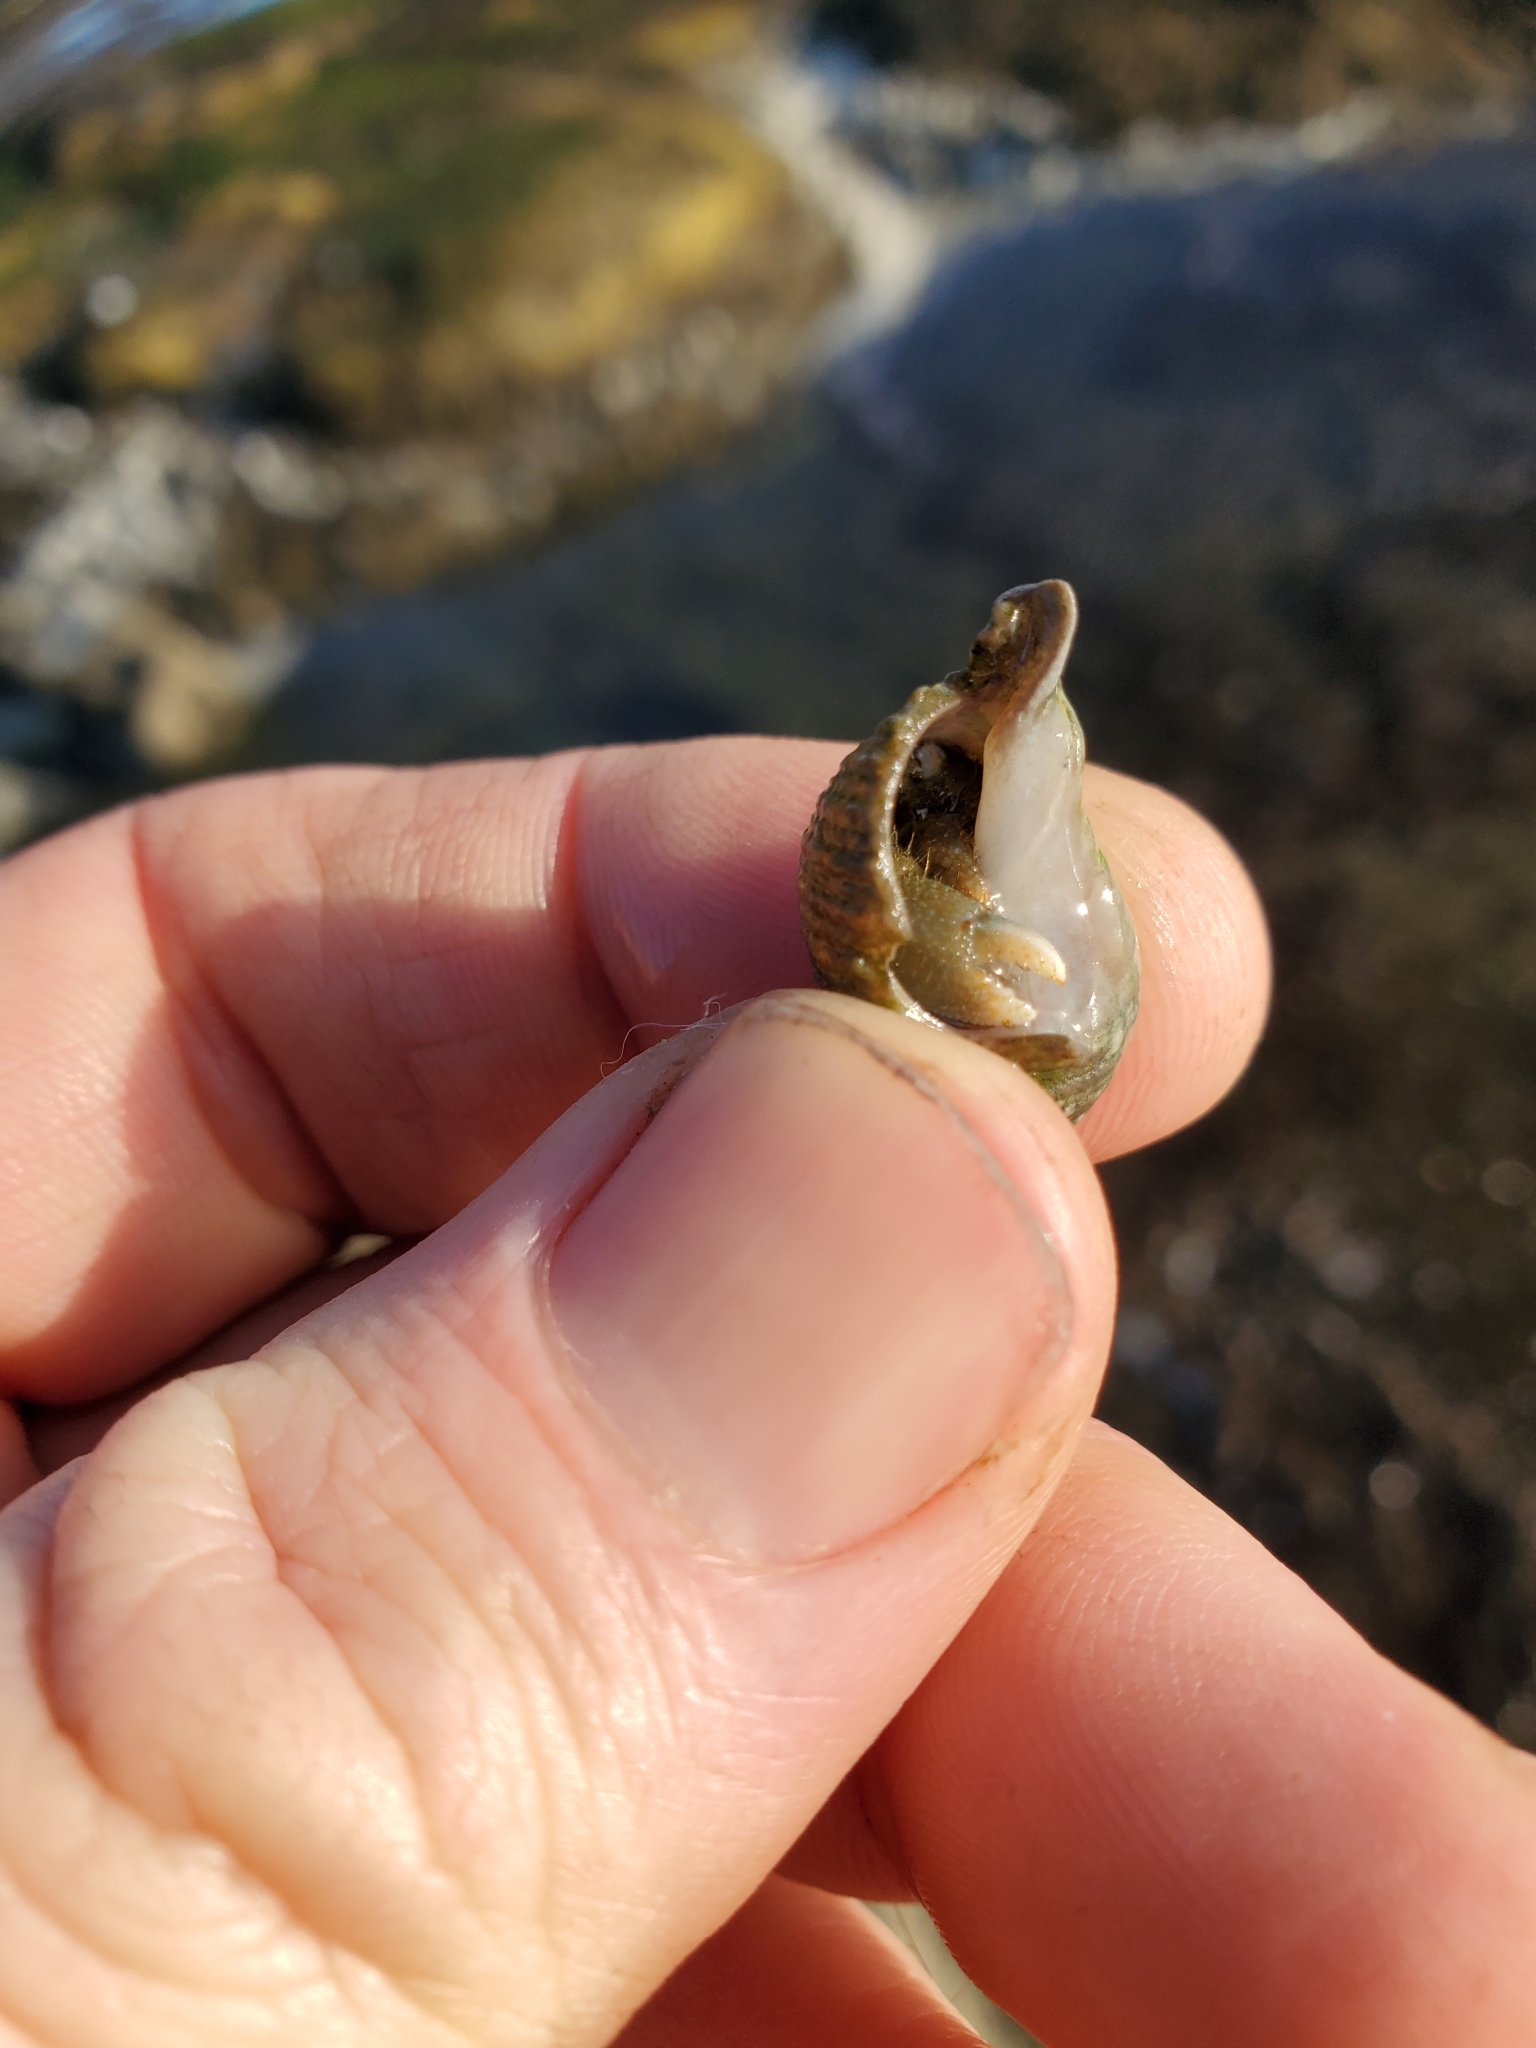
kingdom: Animalia
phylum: Arthropoda
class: Malacostraca
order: Decapoda
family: Paguridae
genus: Pagurus
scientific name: Pagurus granosimanus
